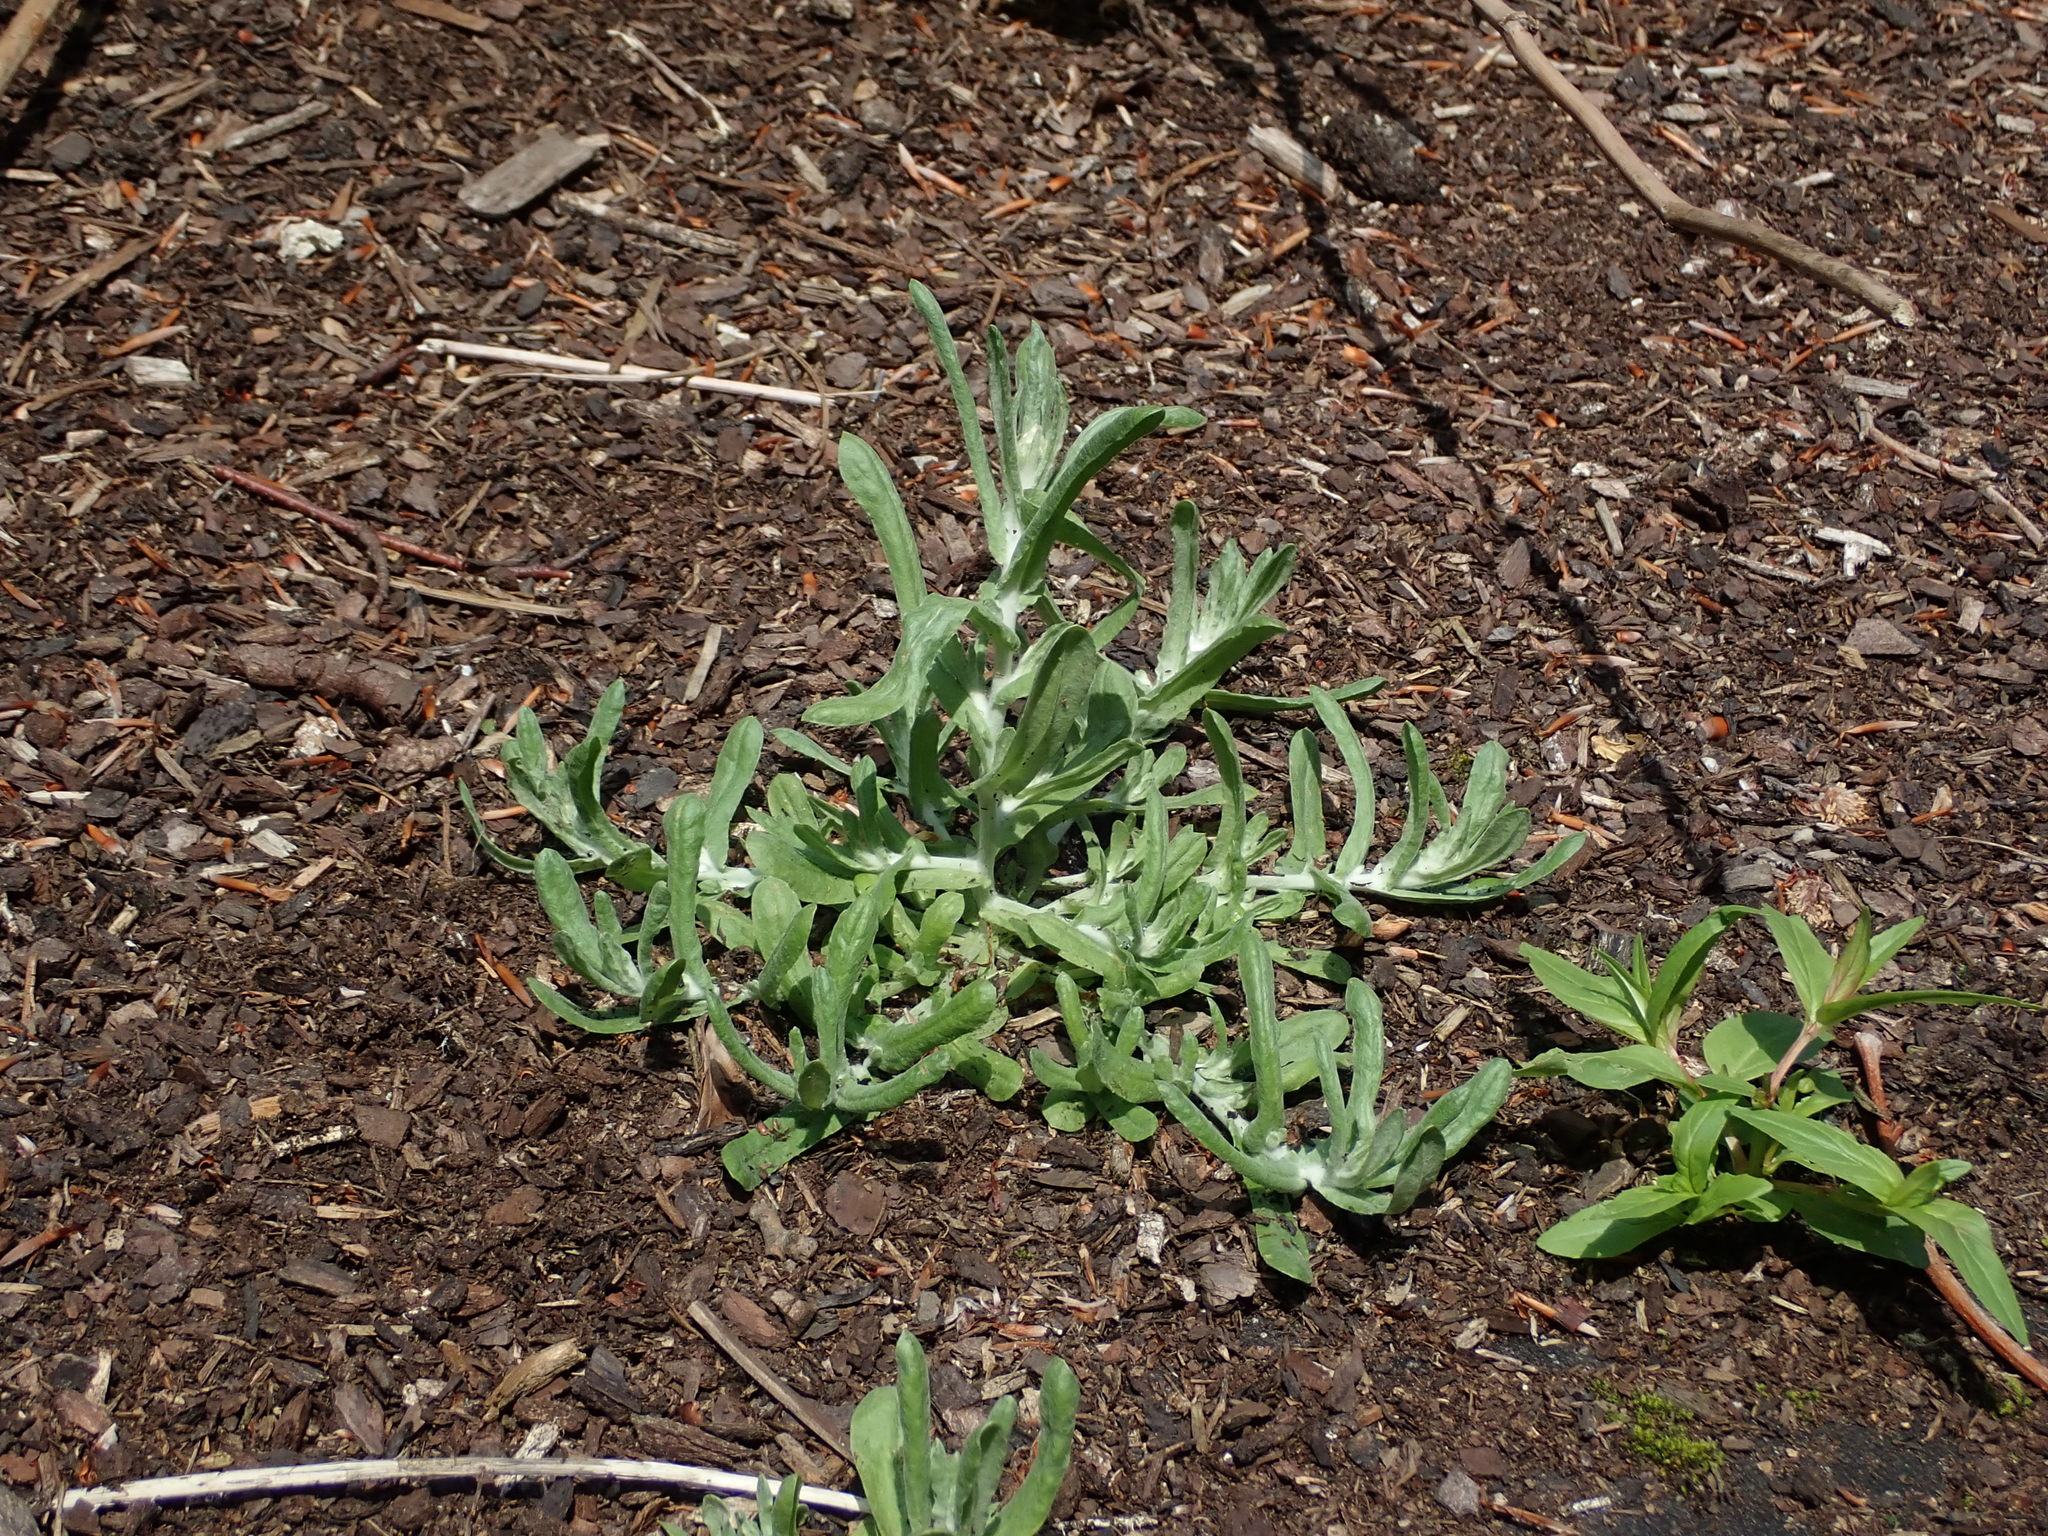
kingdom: Plantae
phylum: Tracheophyta
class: Magnoliopsida
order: Asterales
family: Asteraceae
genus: Helichrysum
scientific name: Helichrysum luteoalbum
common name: Daisy
